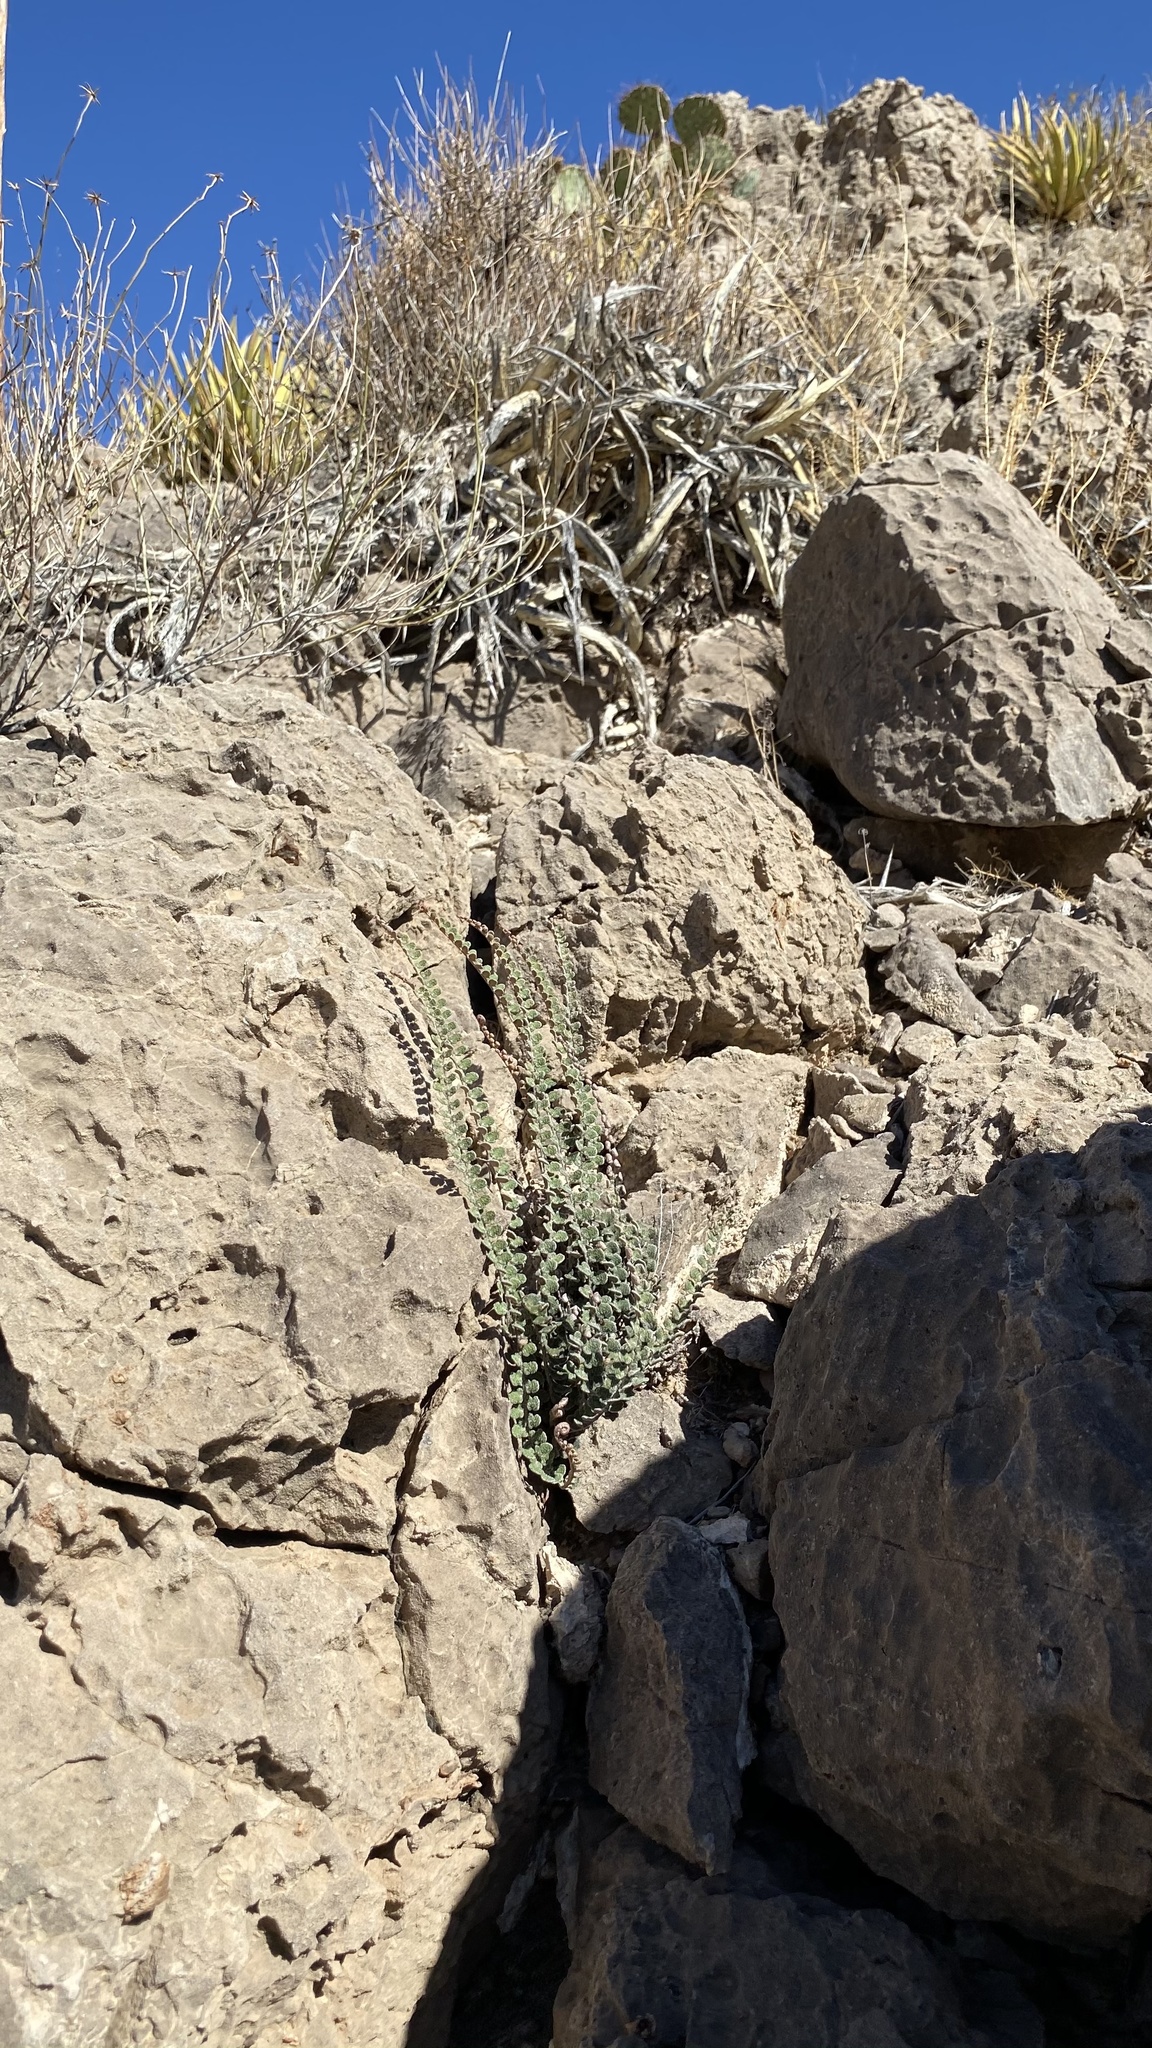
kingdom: Plantae
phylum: Tracheophyta
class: Polypodiopsida
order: Polypodiales
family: Pteridaceae
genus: Astrolepis
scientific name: Astrolepis cochisensis
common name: Scaly cloak fern
